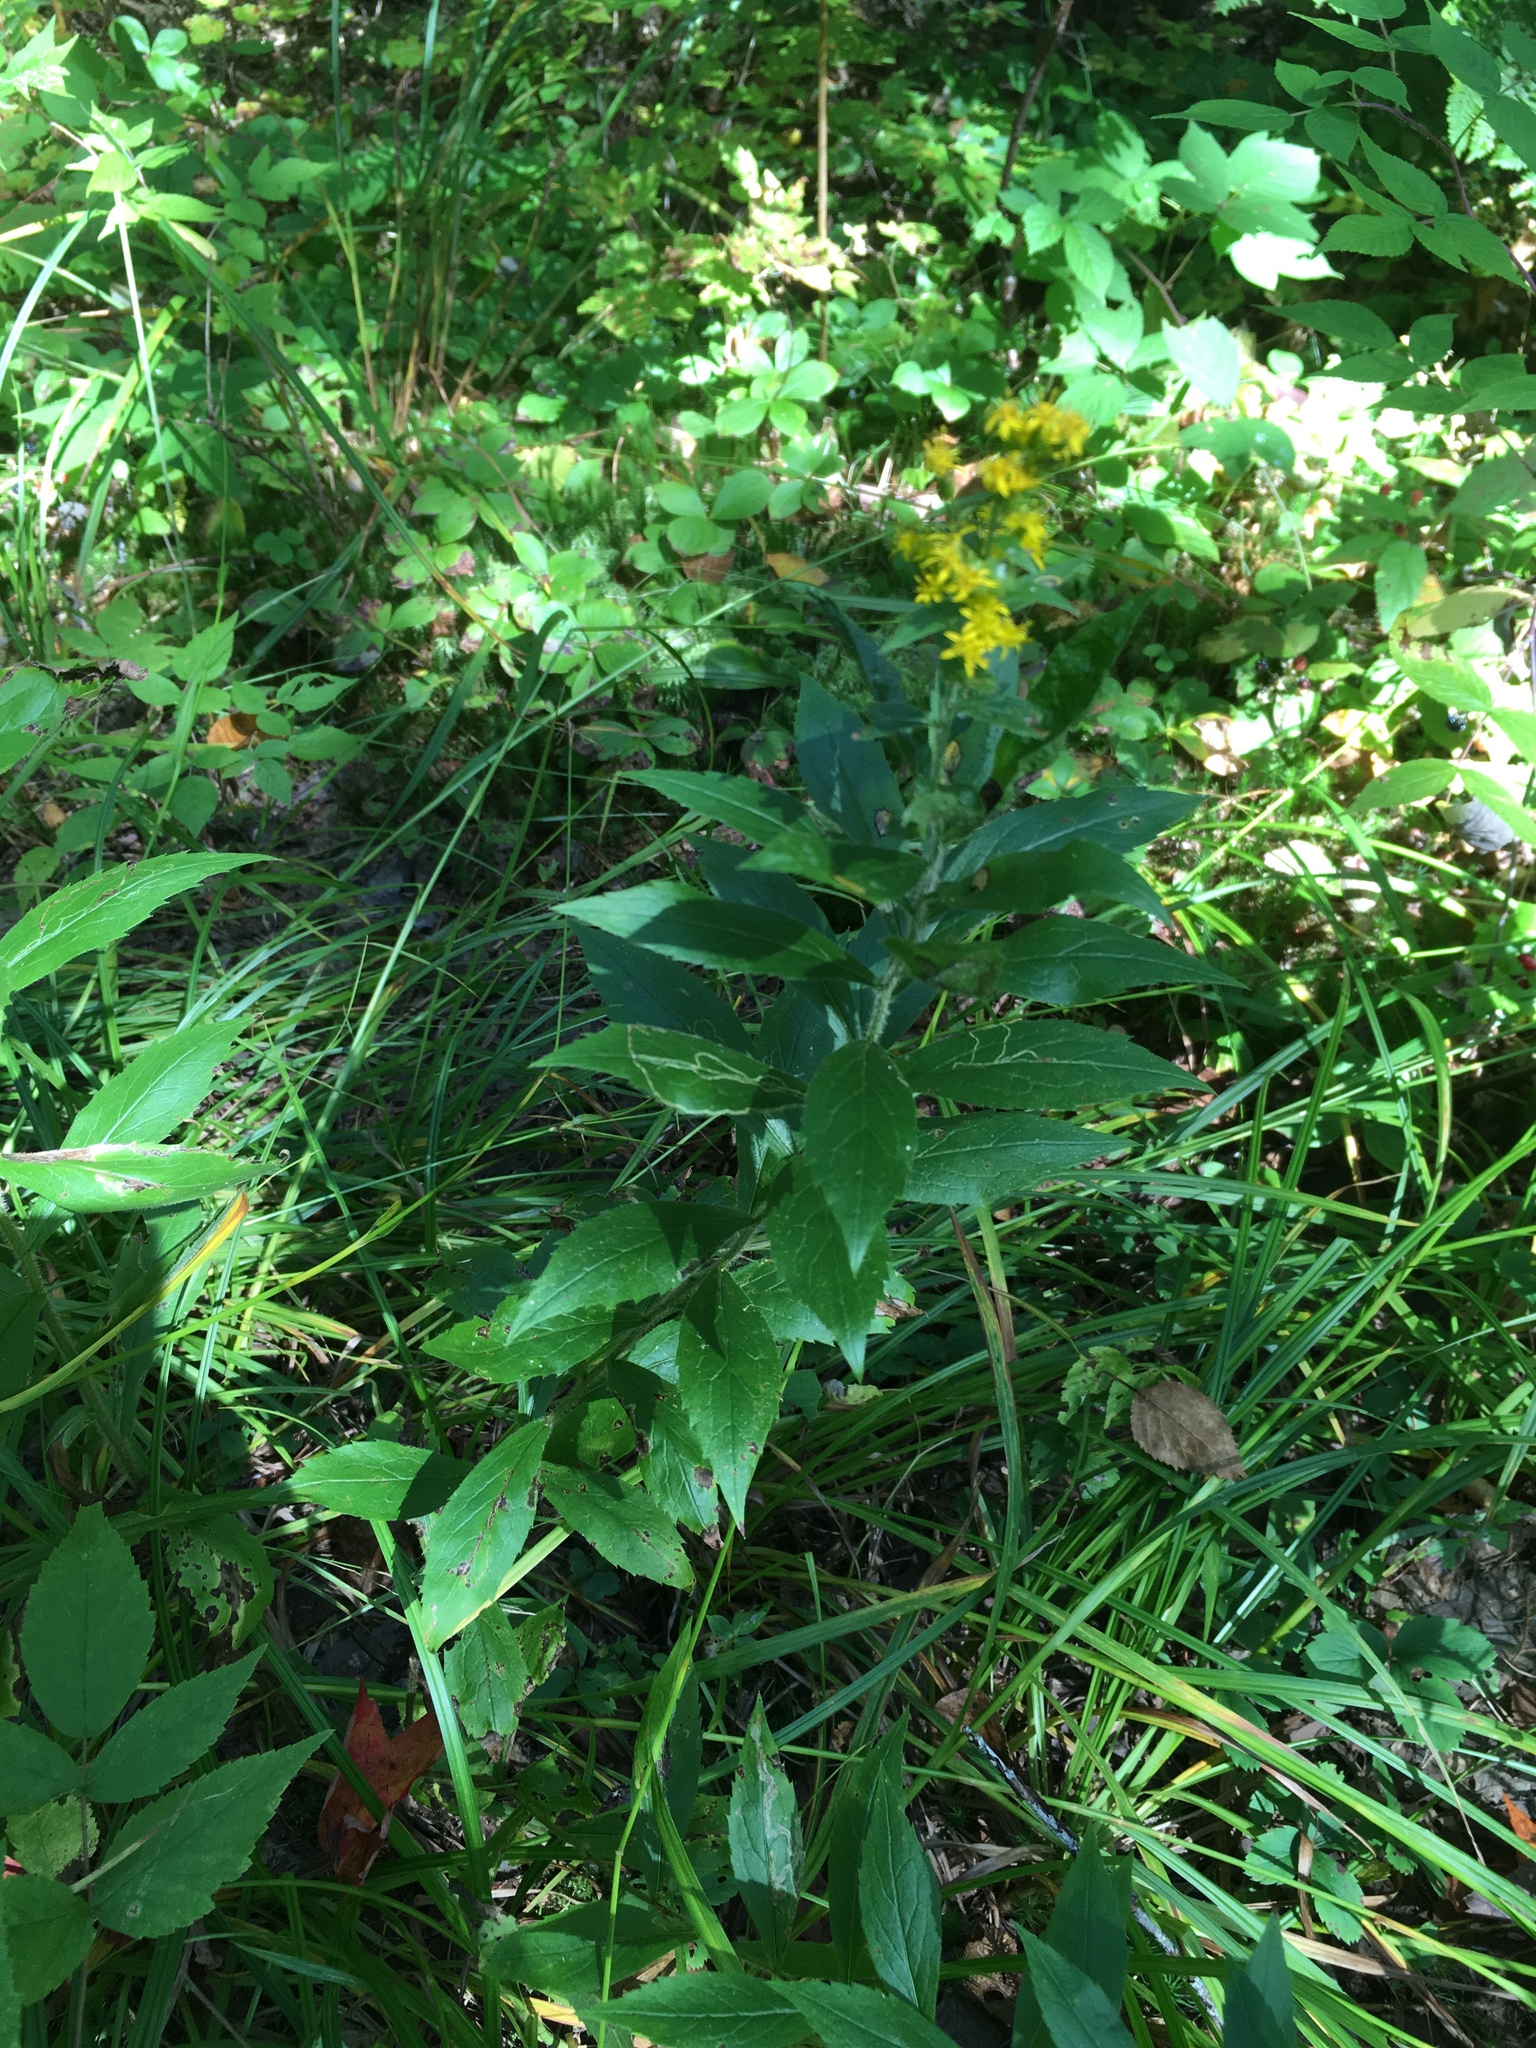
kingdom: Plantae
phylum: Tracheophyta
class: Magnoliopsida
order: Asterales
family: Asteraceae
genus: Solidago
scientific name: Solidago rugosa
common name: Rough-stemmed goldenrod
